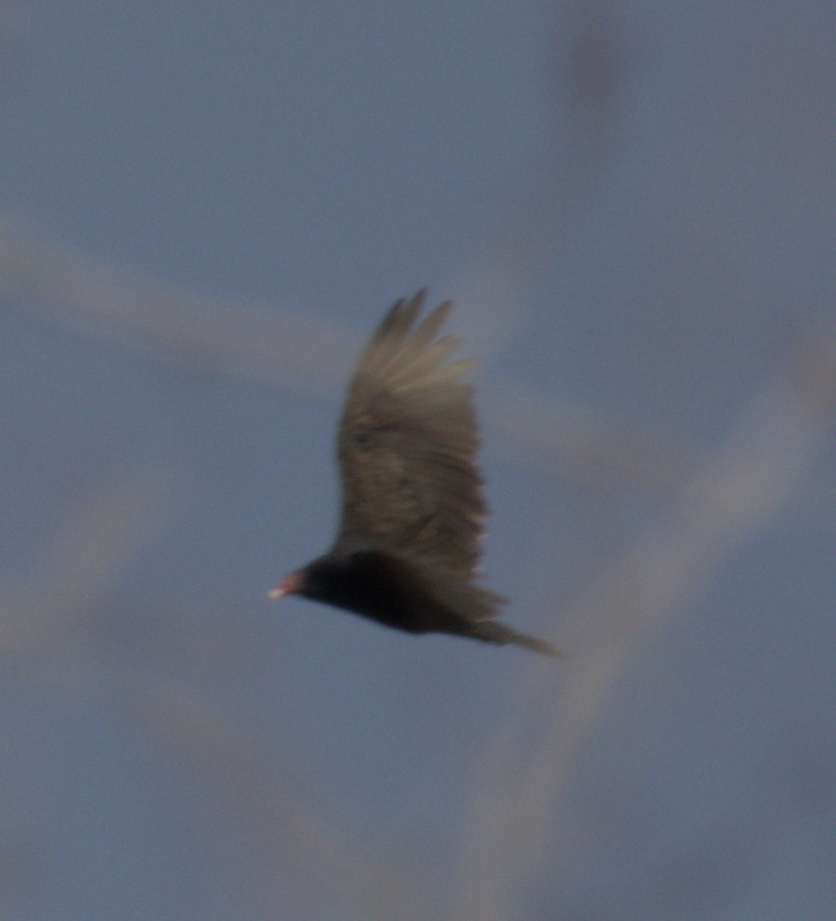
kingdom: Animalia
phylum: Chordata
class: Aves
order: Accipitriformes
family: Cathartidae
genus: Cathartes
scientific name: Cathartes aura
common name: Turkey vulture
